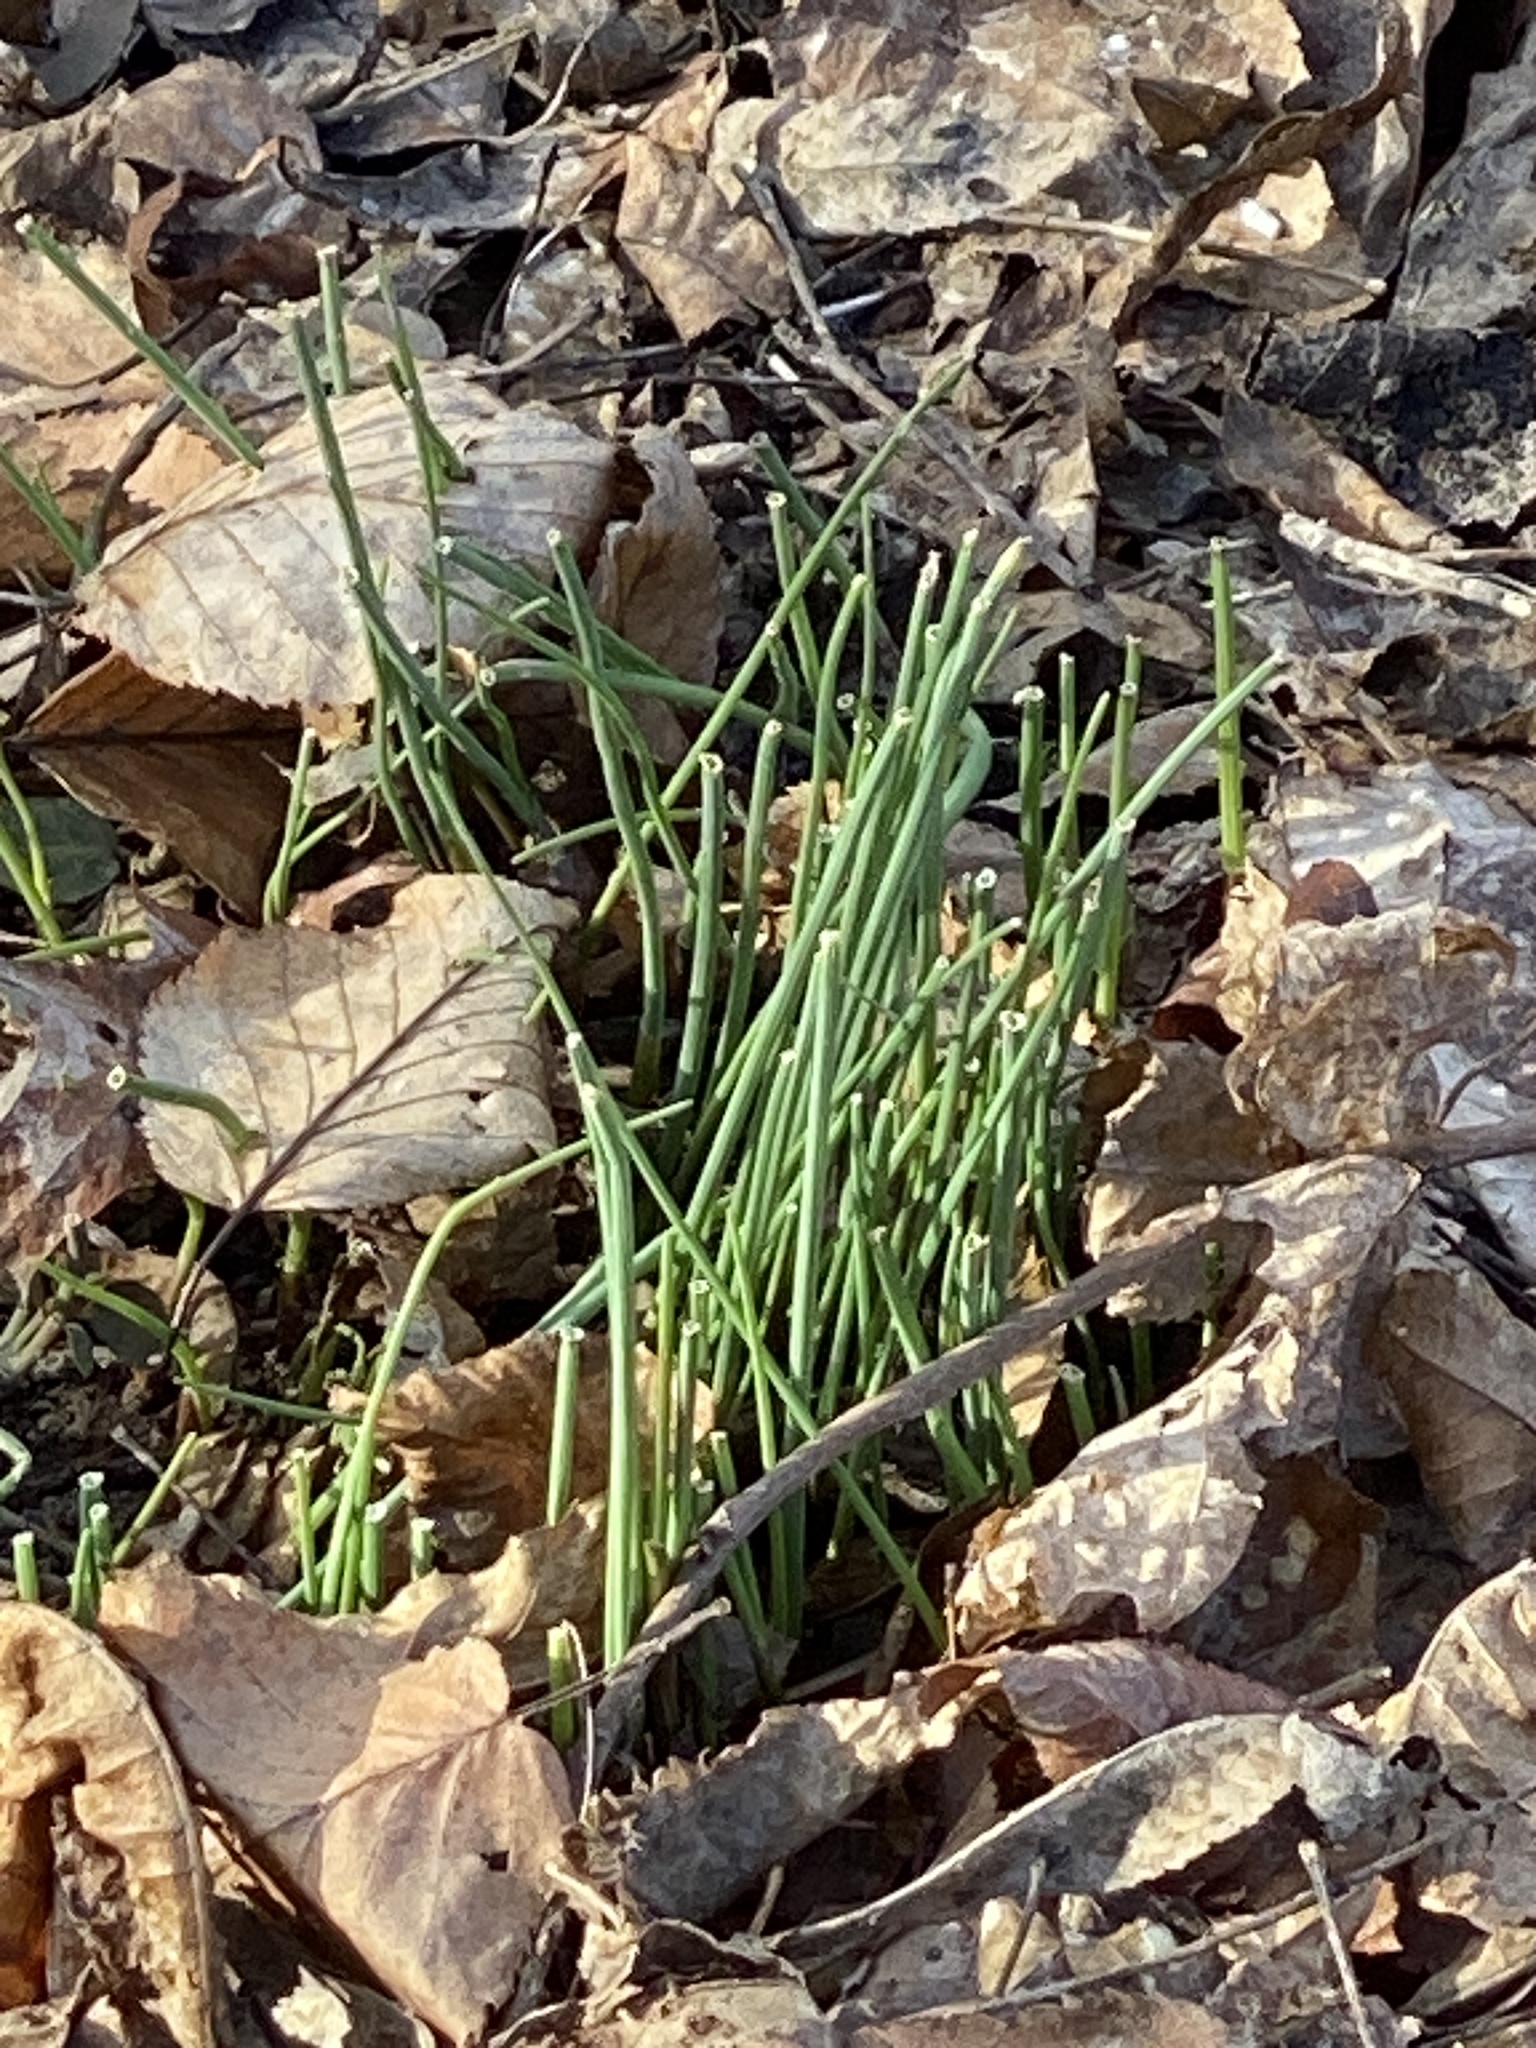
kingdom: Plantae
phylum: Tracheophyta
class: Liliopsida
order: Asparagales
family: Amaryllidaceae
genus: Allium
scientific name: Allium vineale
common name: Crow garlic
